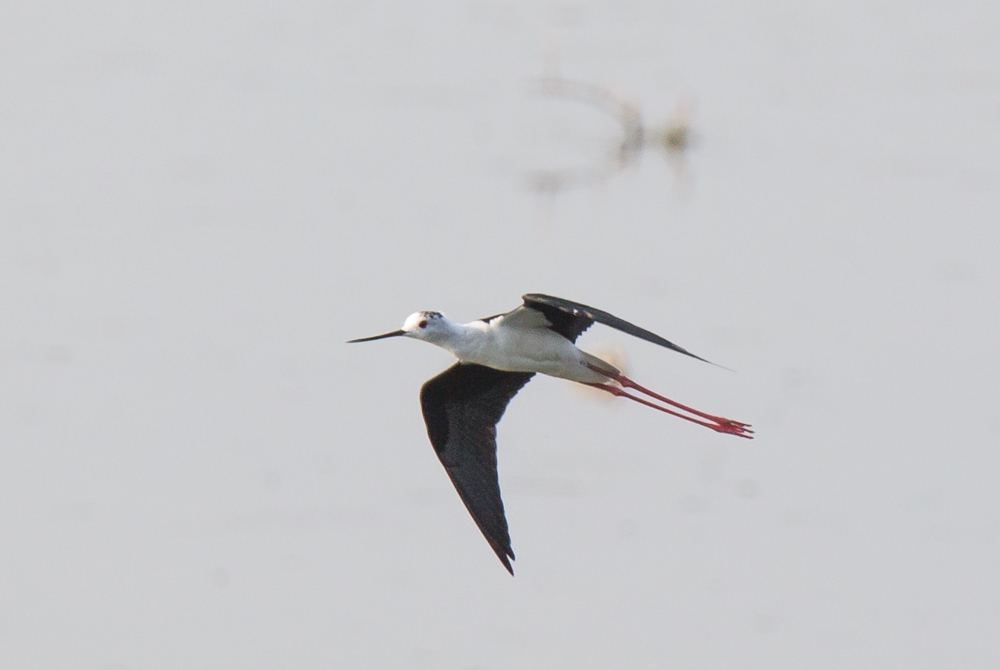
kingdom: Animalia
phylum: Chordata
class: Aves
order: Charadriiformes
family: Recurvirostridae
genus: Himantopus
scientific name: Himantopus himantopus
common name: Black-winged stilt
